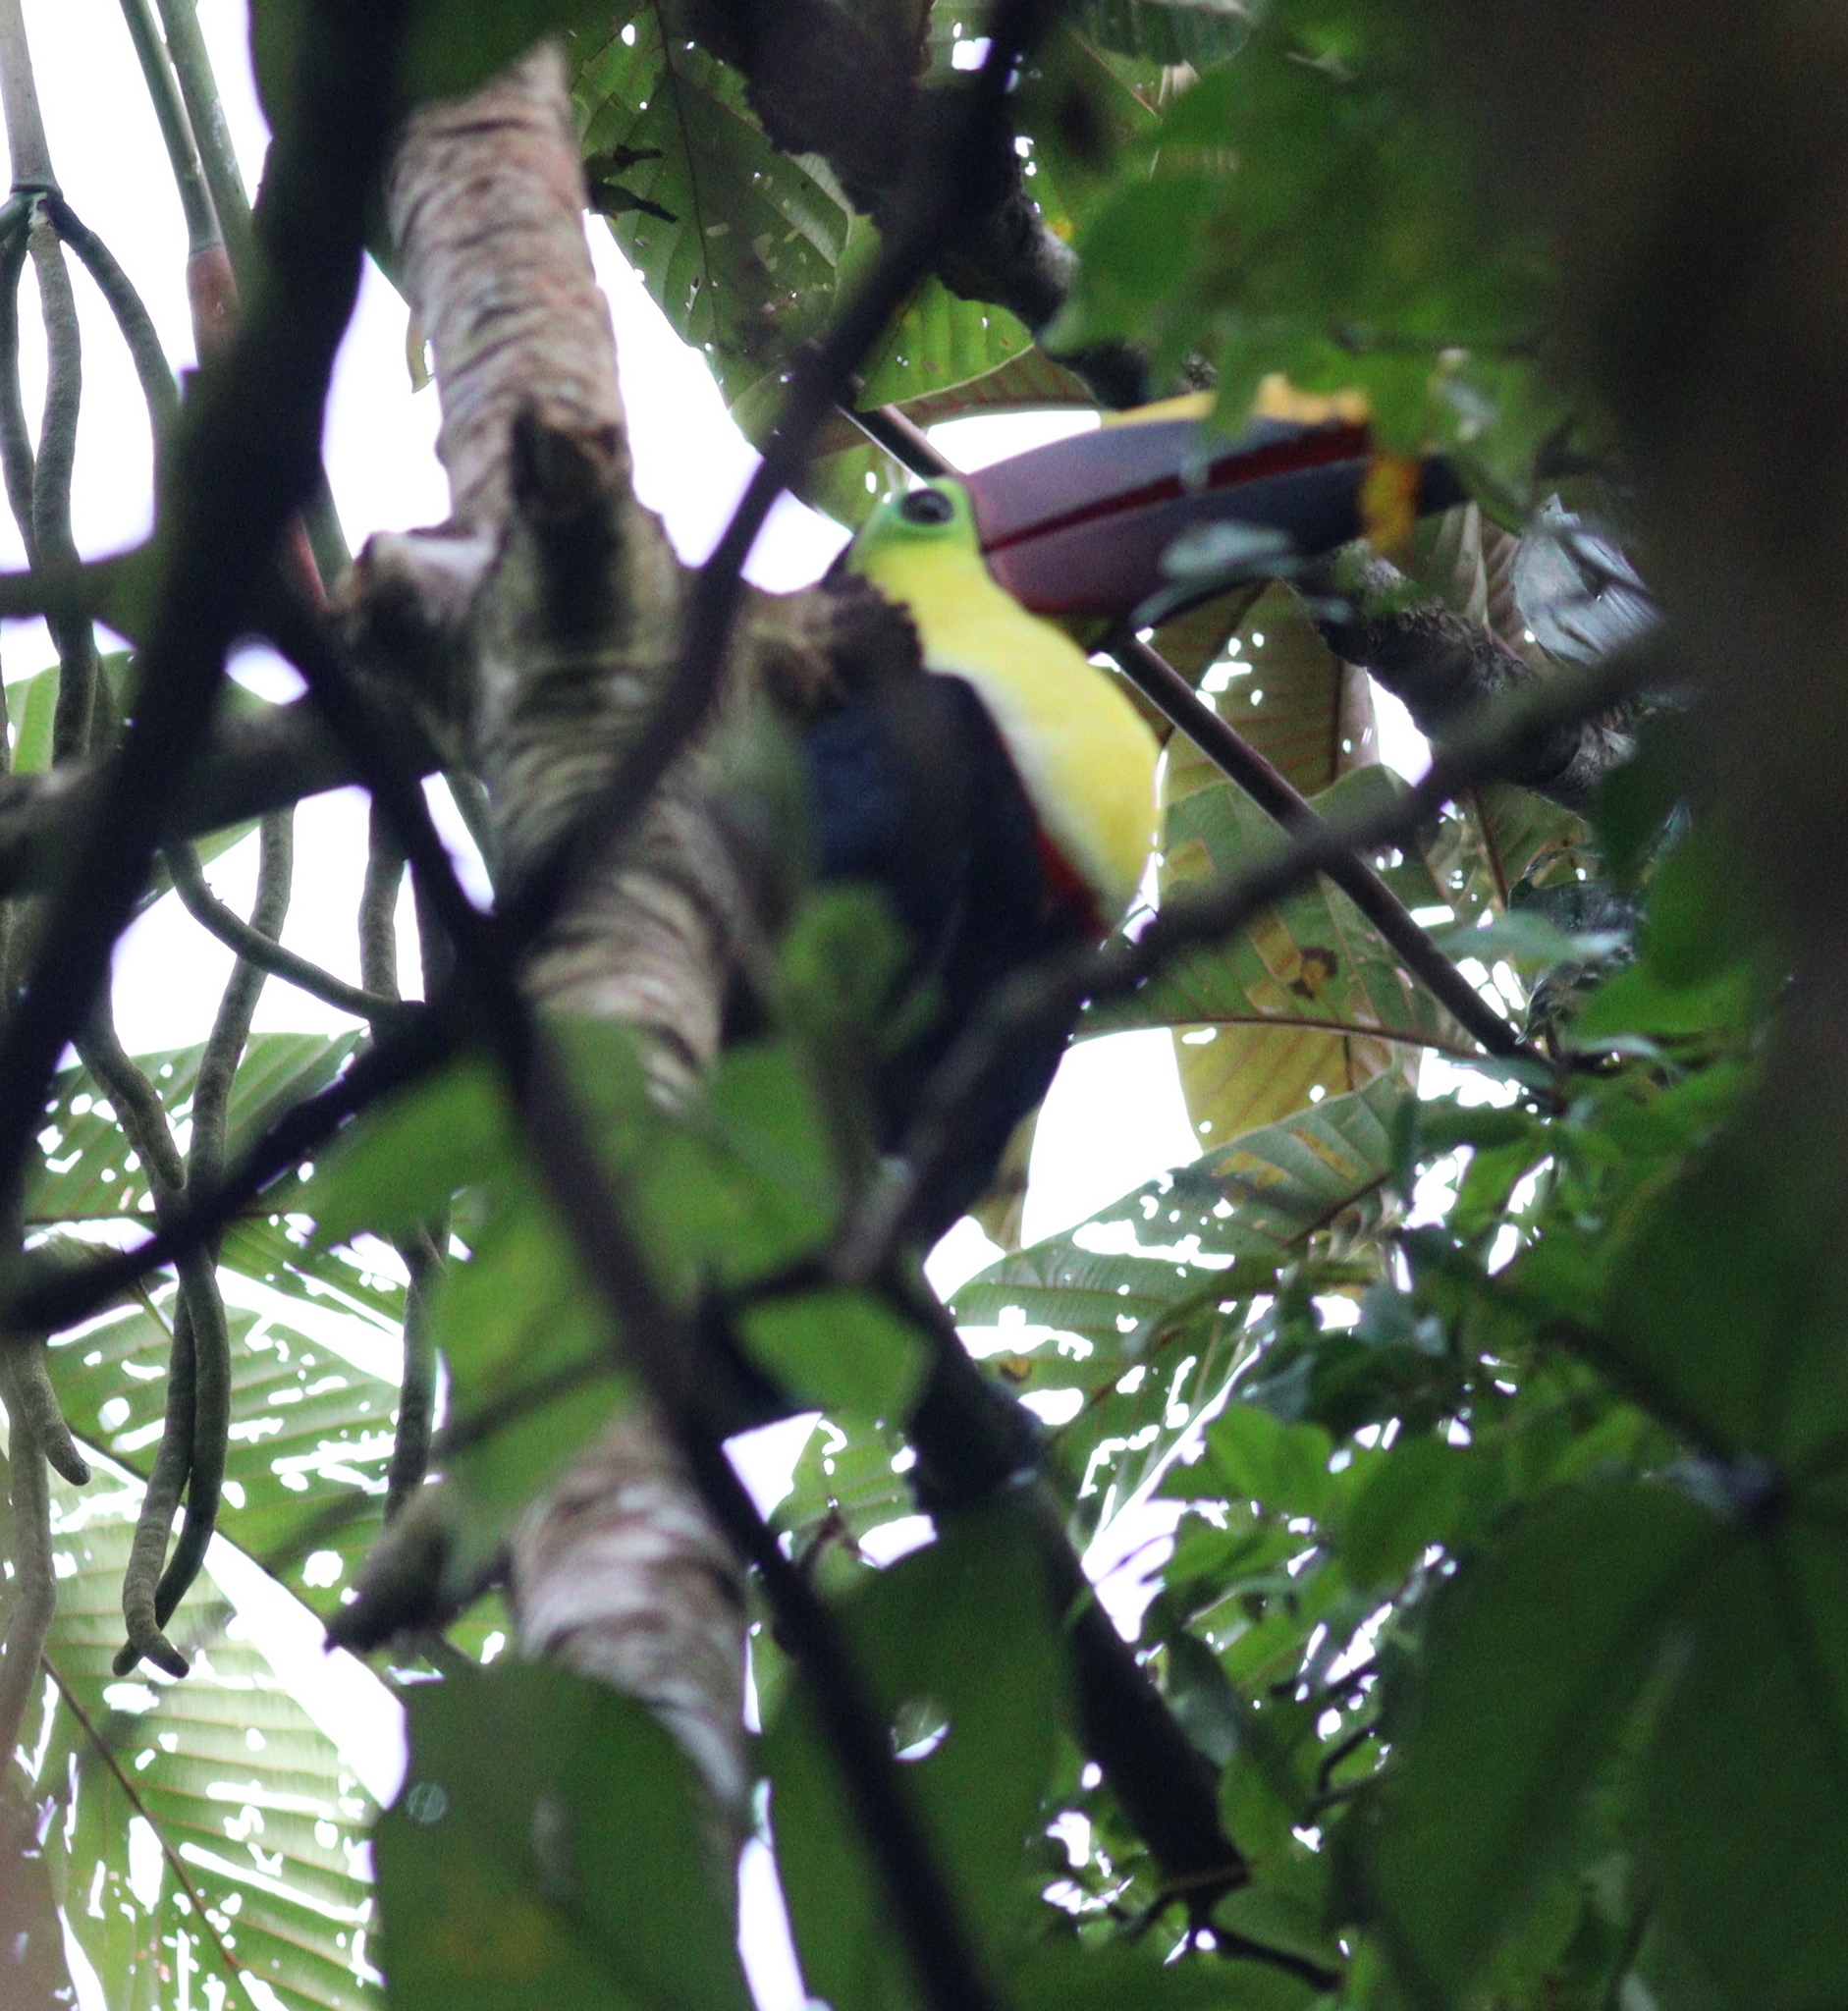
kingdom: Animalia
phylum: Chordata
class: Aves
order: Piciformes
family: Ramphastidae
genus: Ramphastos
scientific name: Ramphastos ambiguus
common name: Yellow-throated toucan
